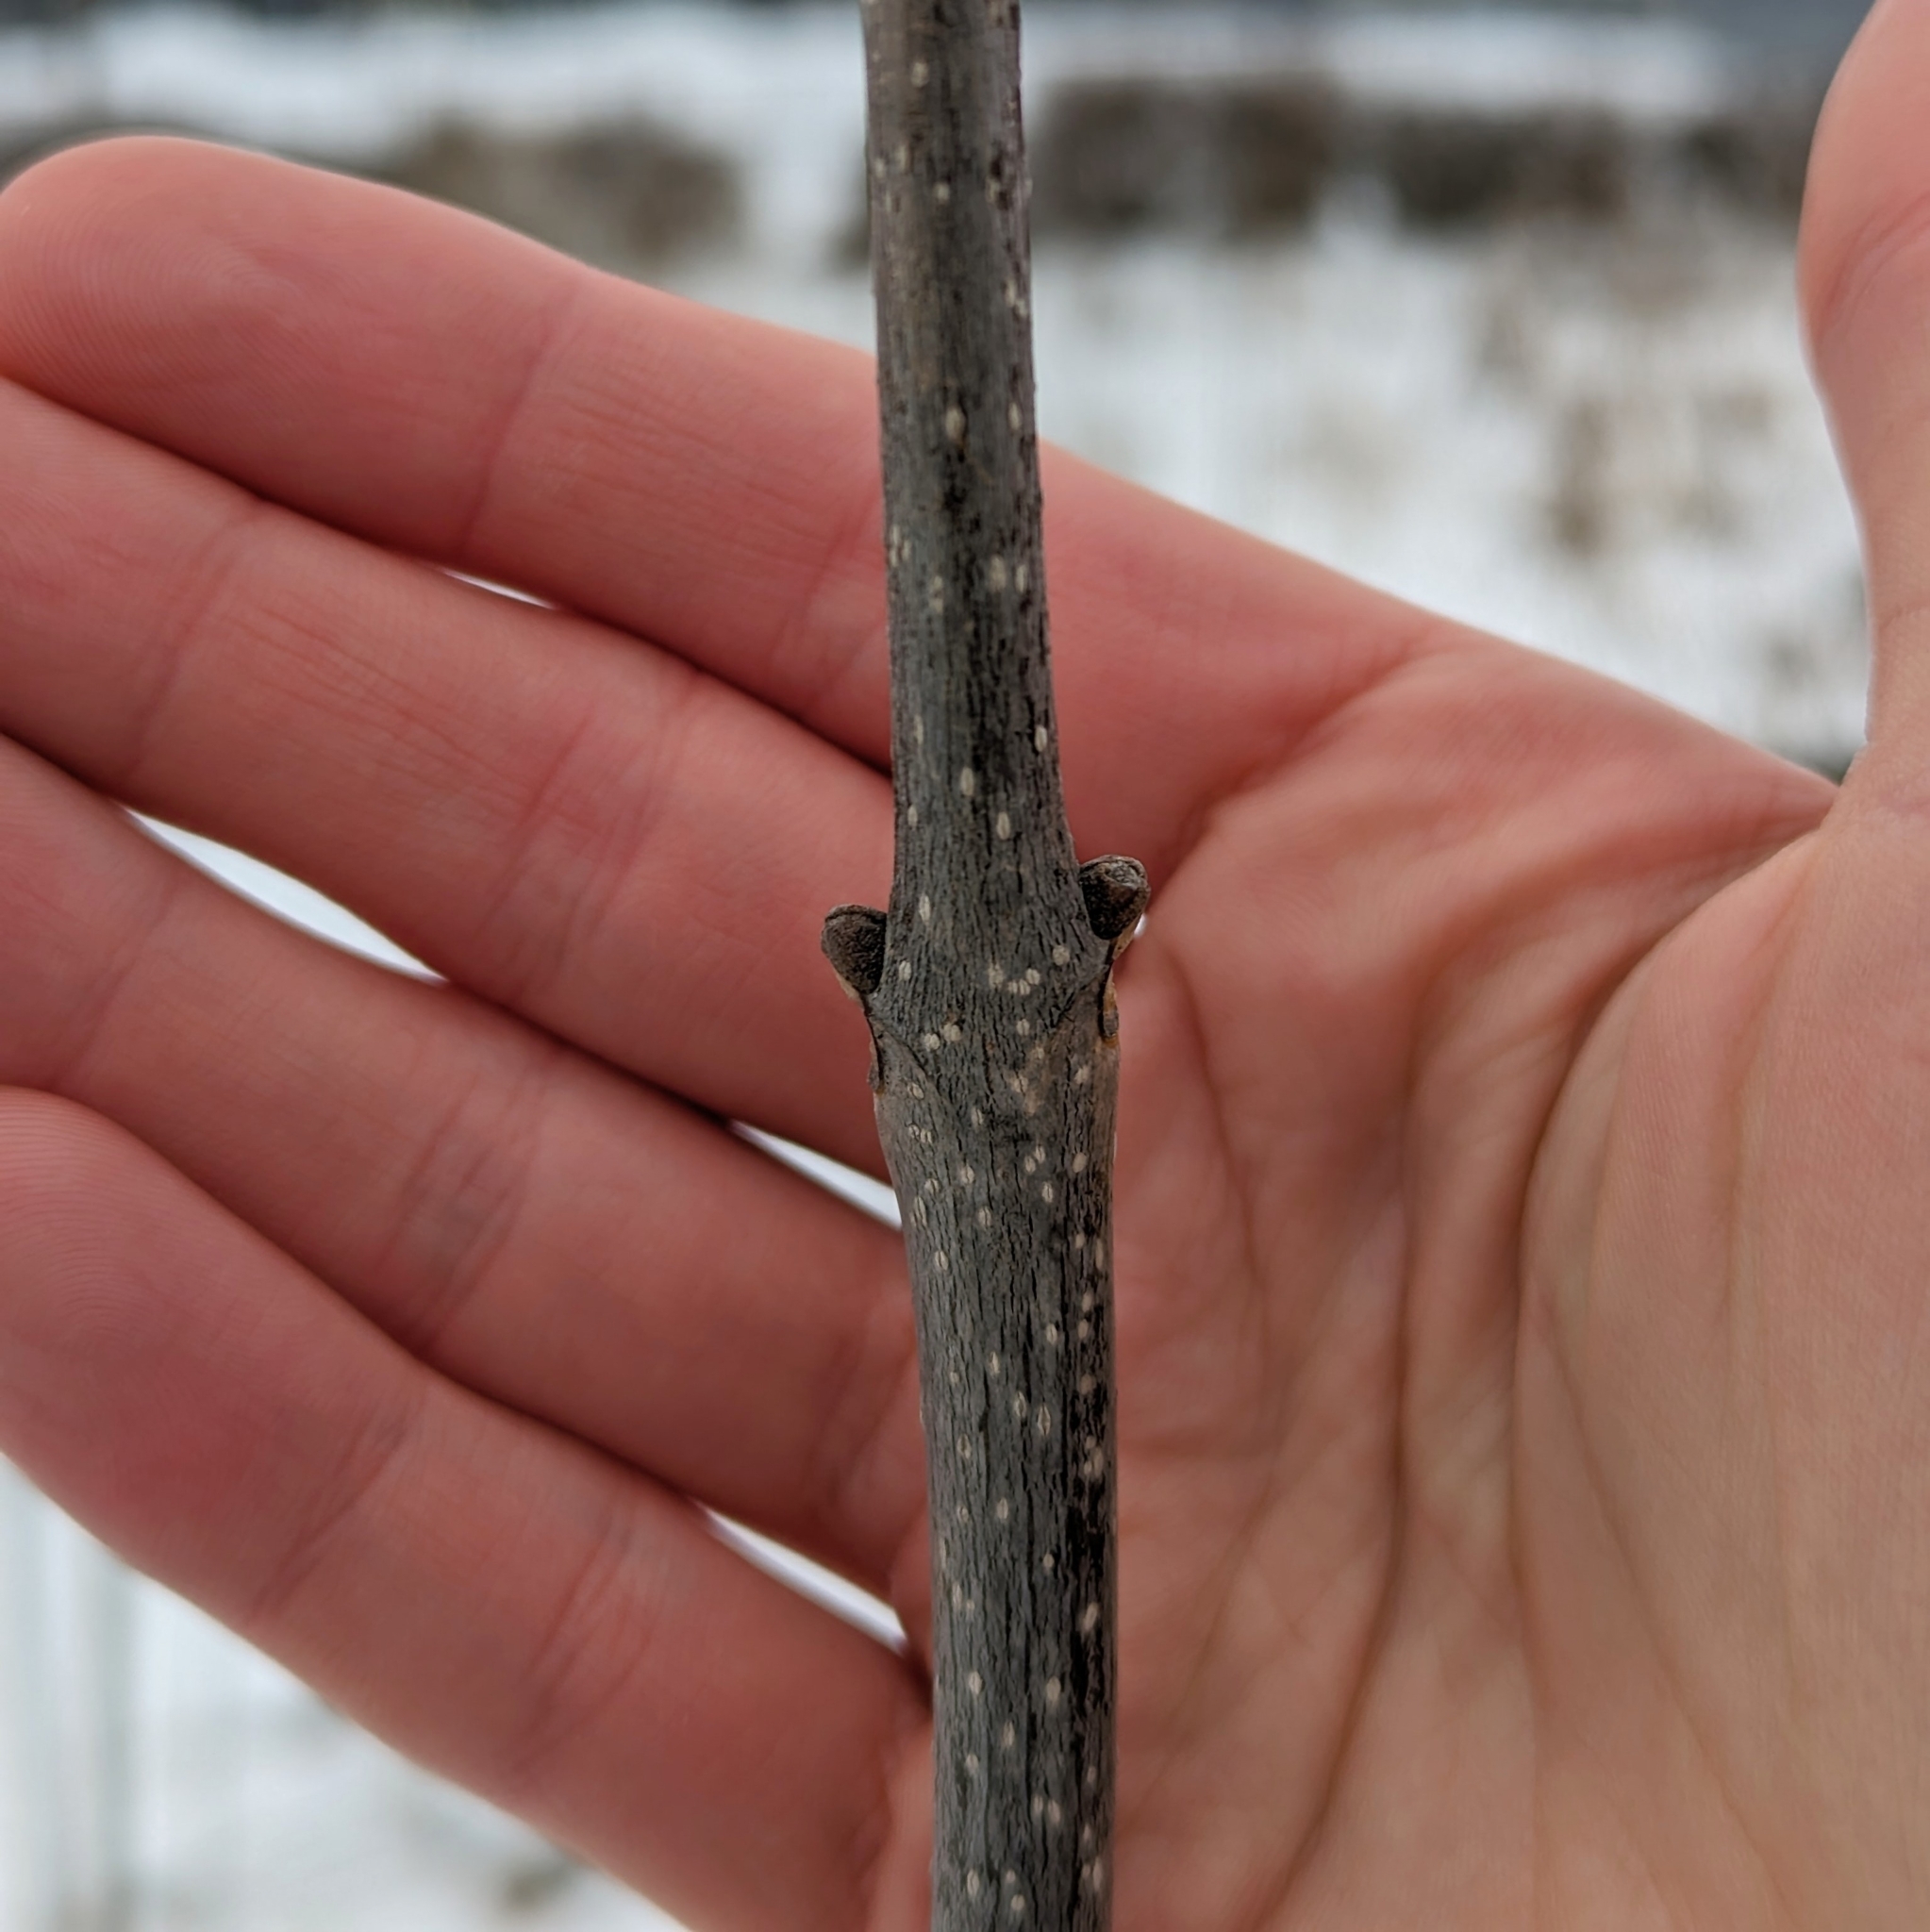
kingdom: Plantae
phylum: Tracheophyta
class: Magnoliopsida
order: Lamiales
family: Oleaceae
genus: Fraxinus
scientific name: Fraxinus pennsylvanica
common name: Green ash
